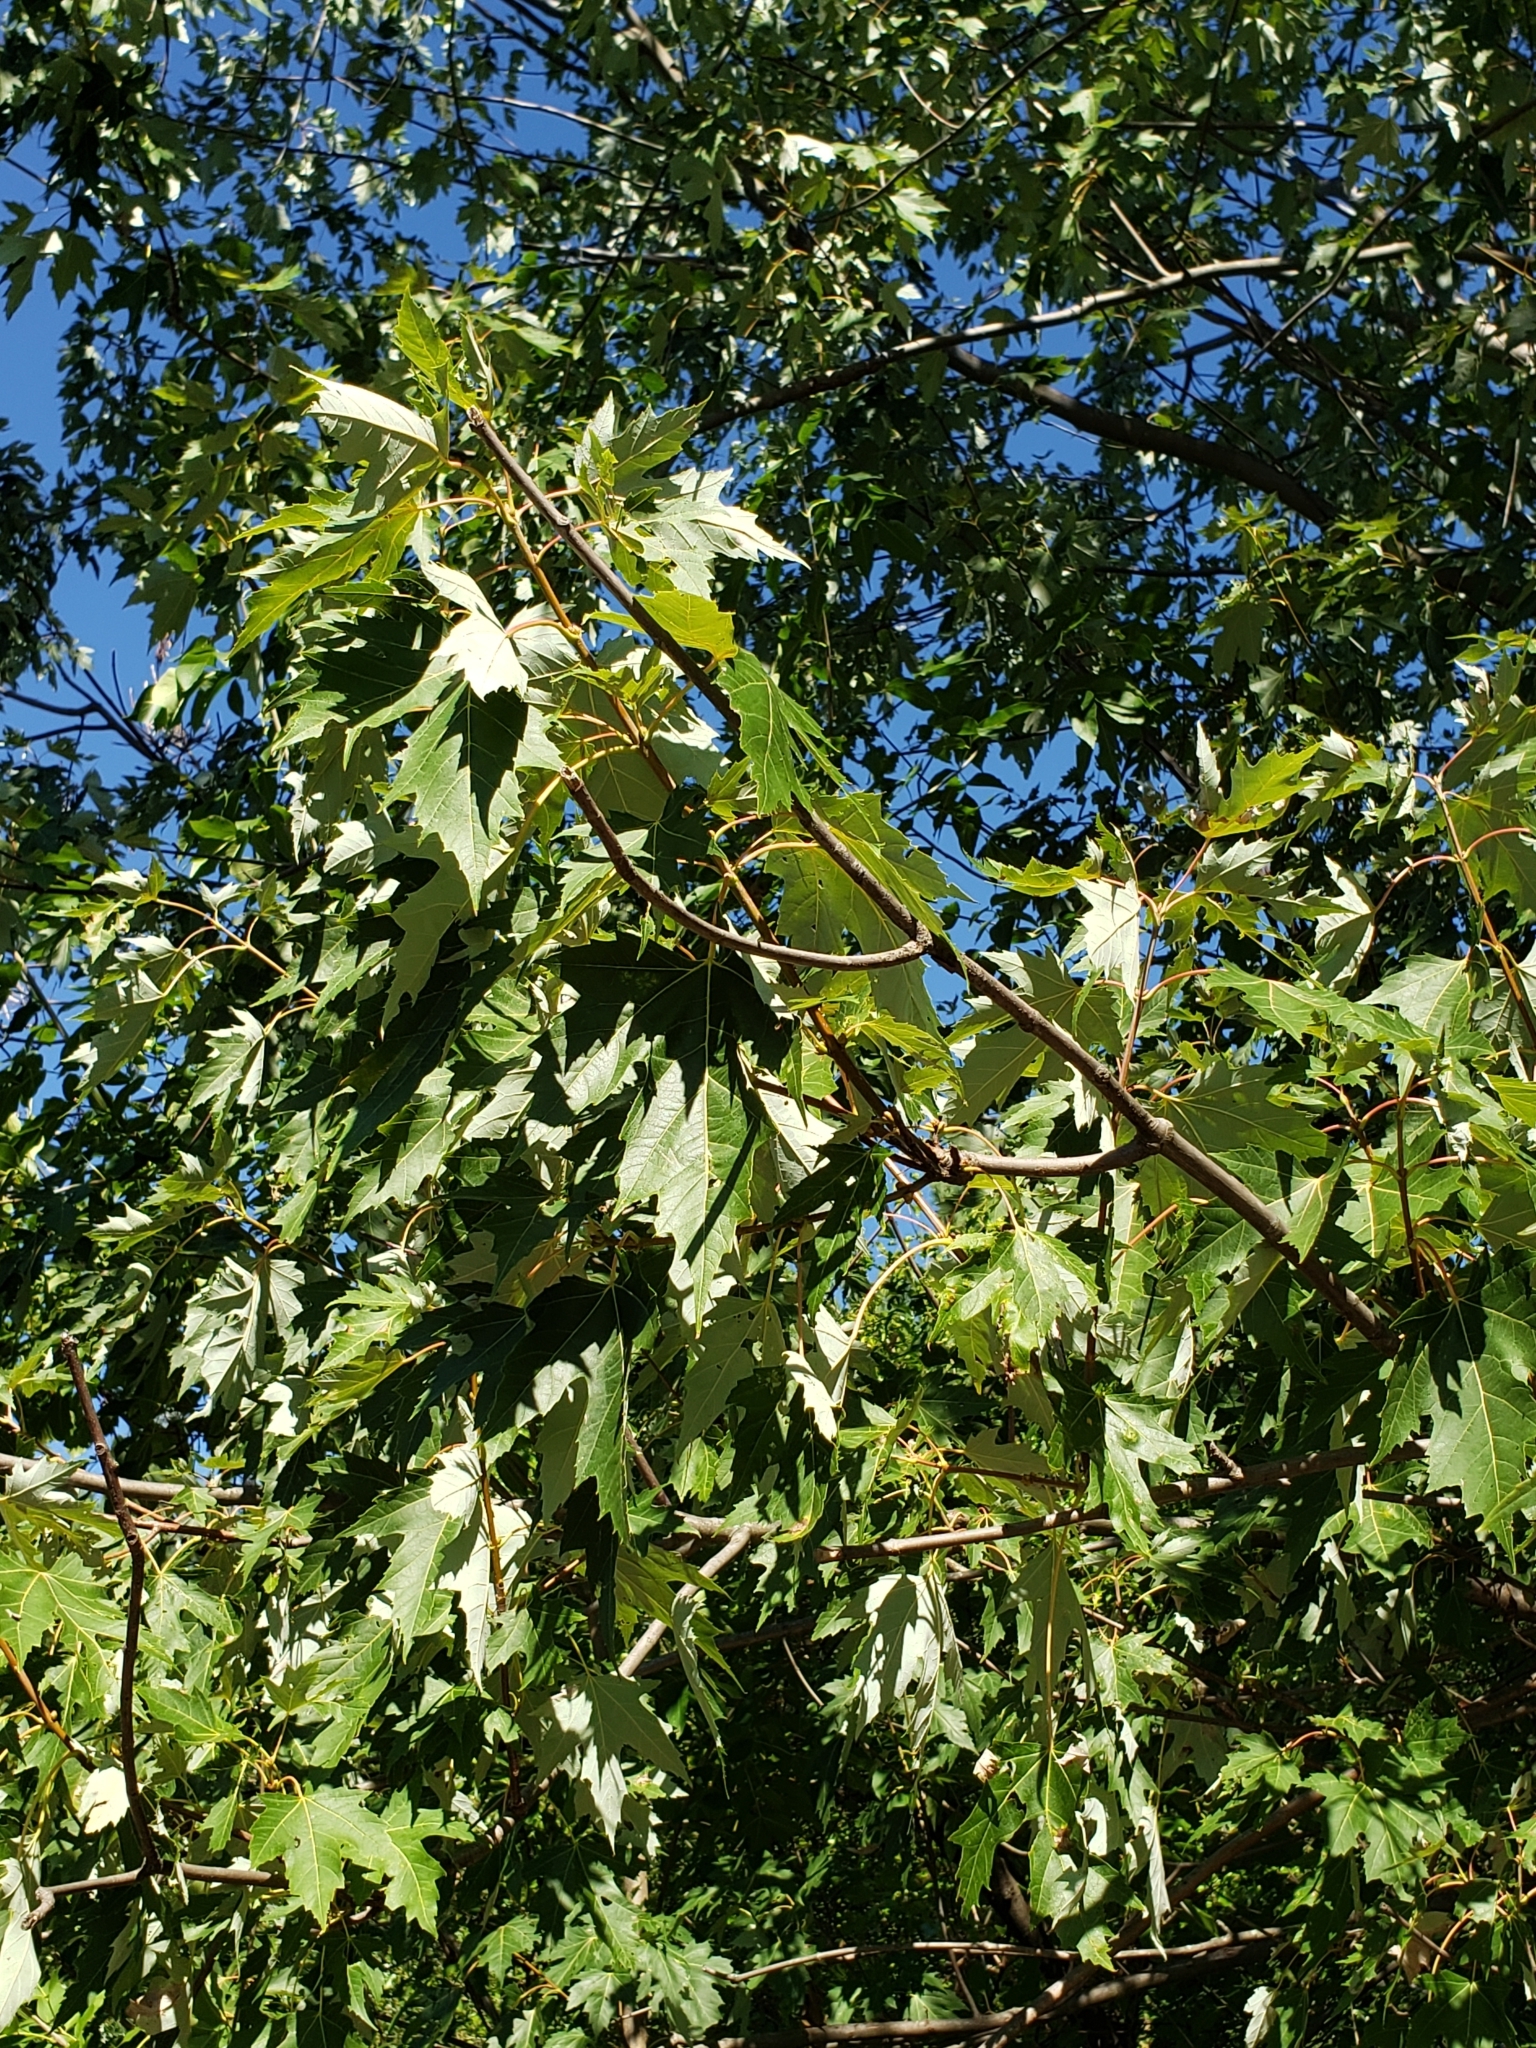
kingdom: Plantae
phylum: Tracheophyta
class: Magnoliopsida
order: Sapindales
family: Sapindaceae
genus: Acer
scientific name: Acer saccharinum
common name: Silver maple
